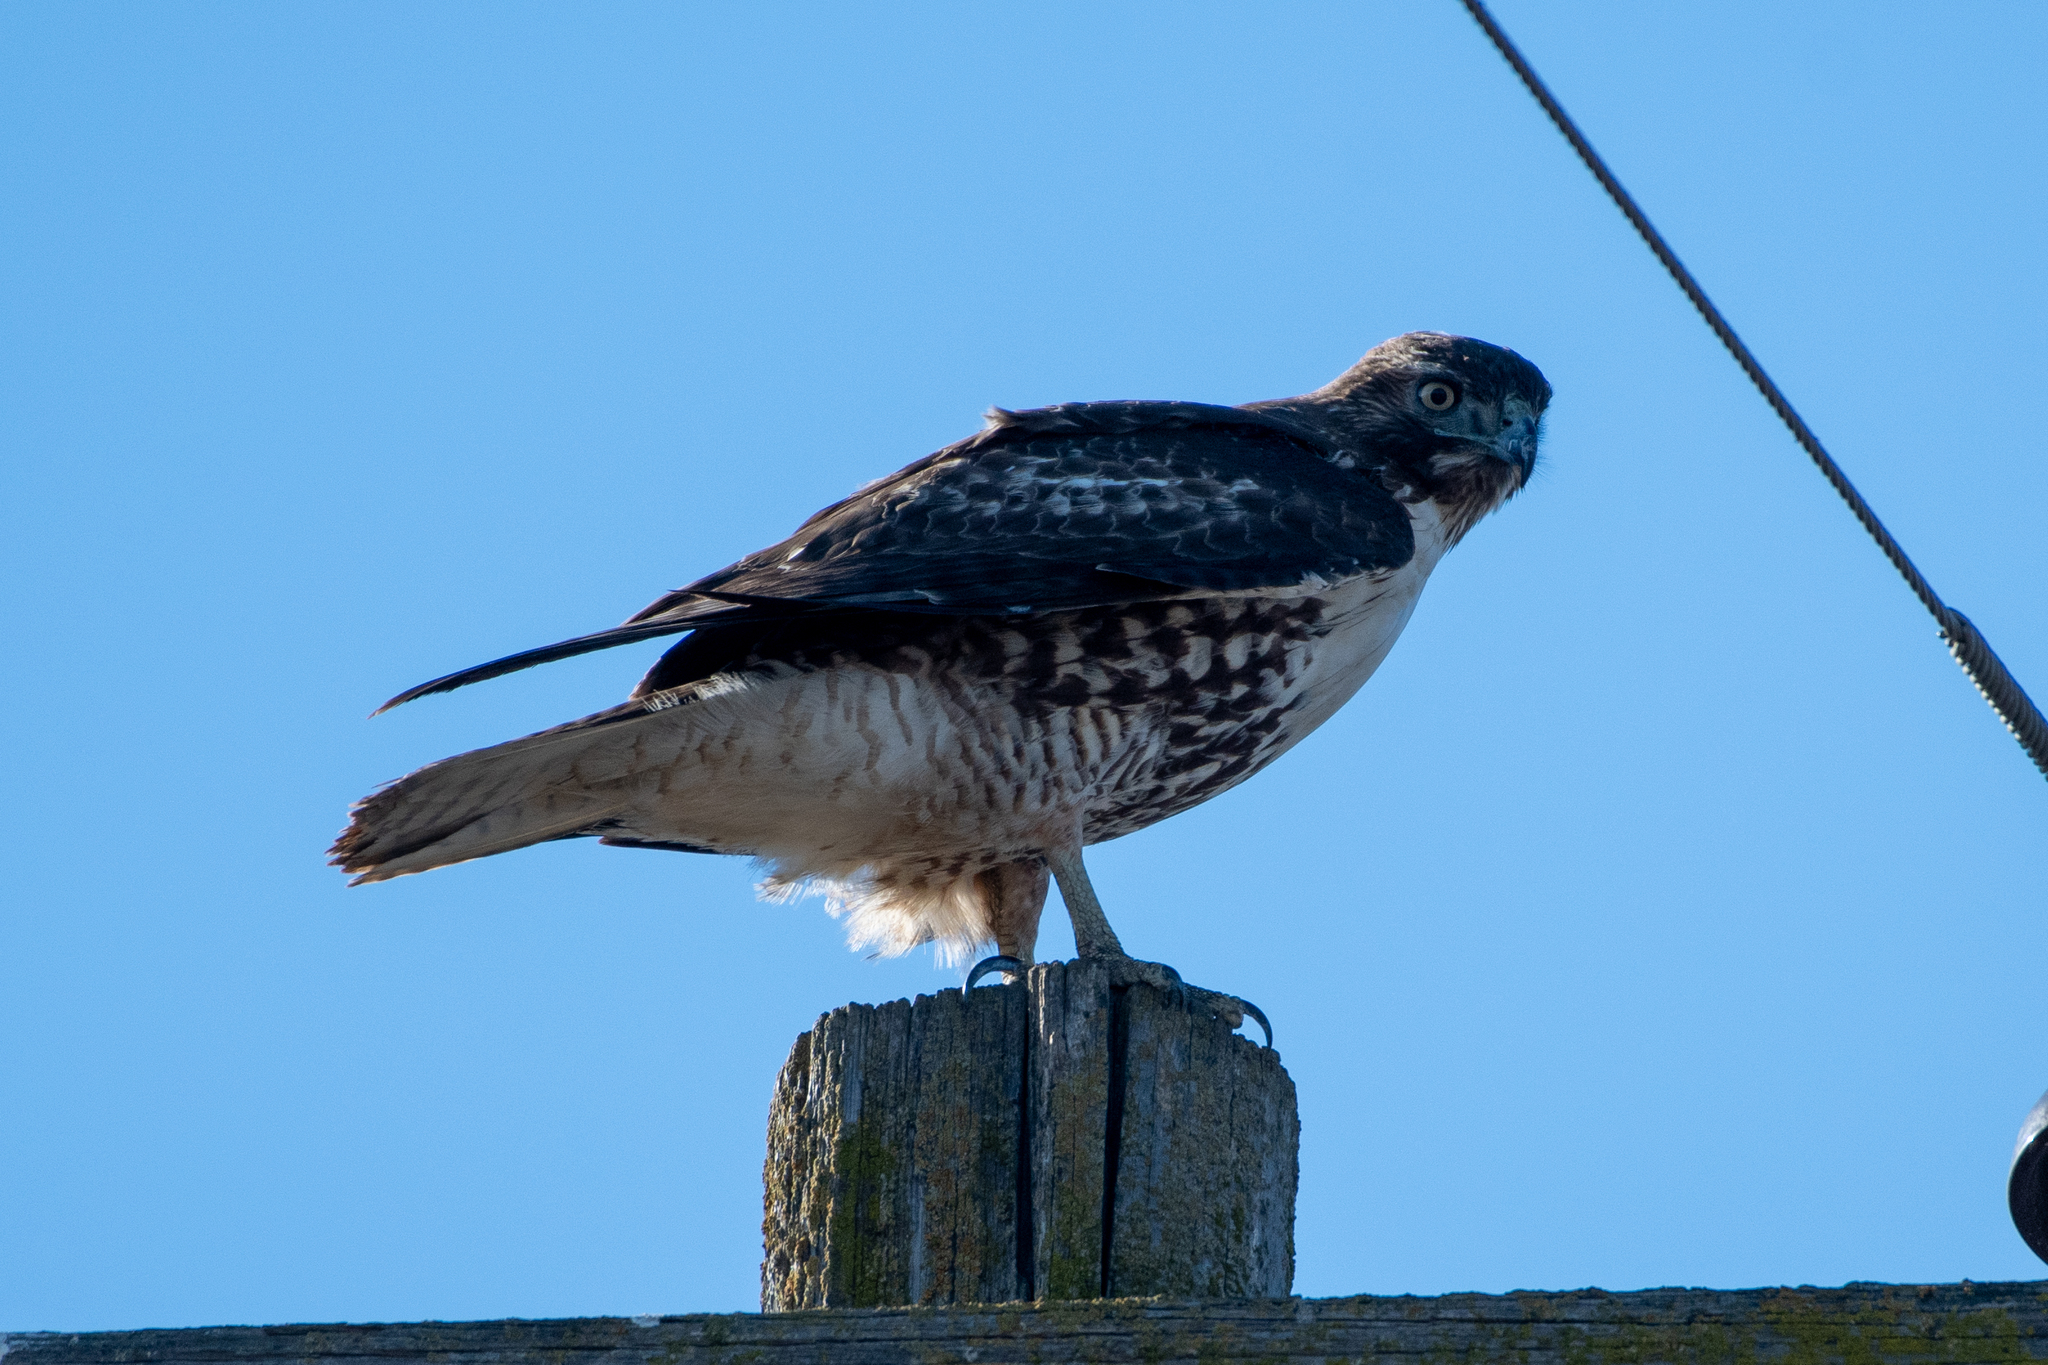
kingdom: Animalia
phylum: Chordata
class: Aves
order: Accipitriformes
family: Accipitridae
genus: Buteo
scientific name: Buteo jamaicensis
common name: Red-tailed hawk
